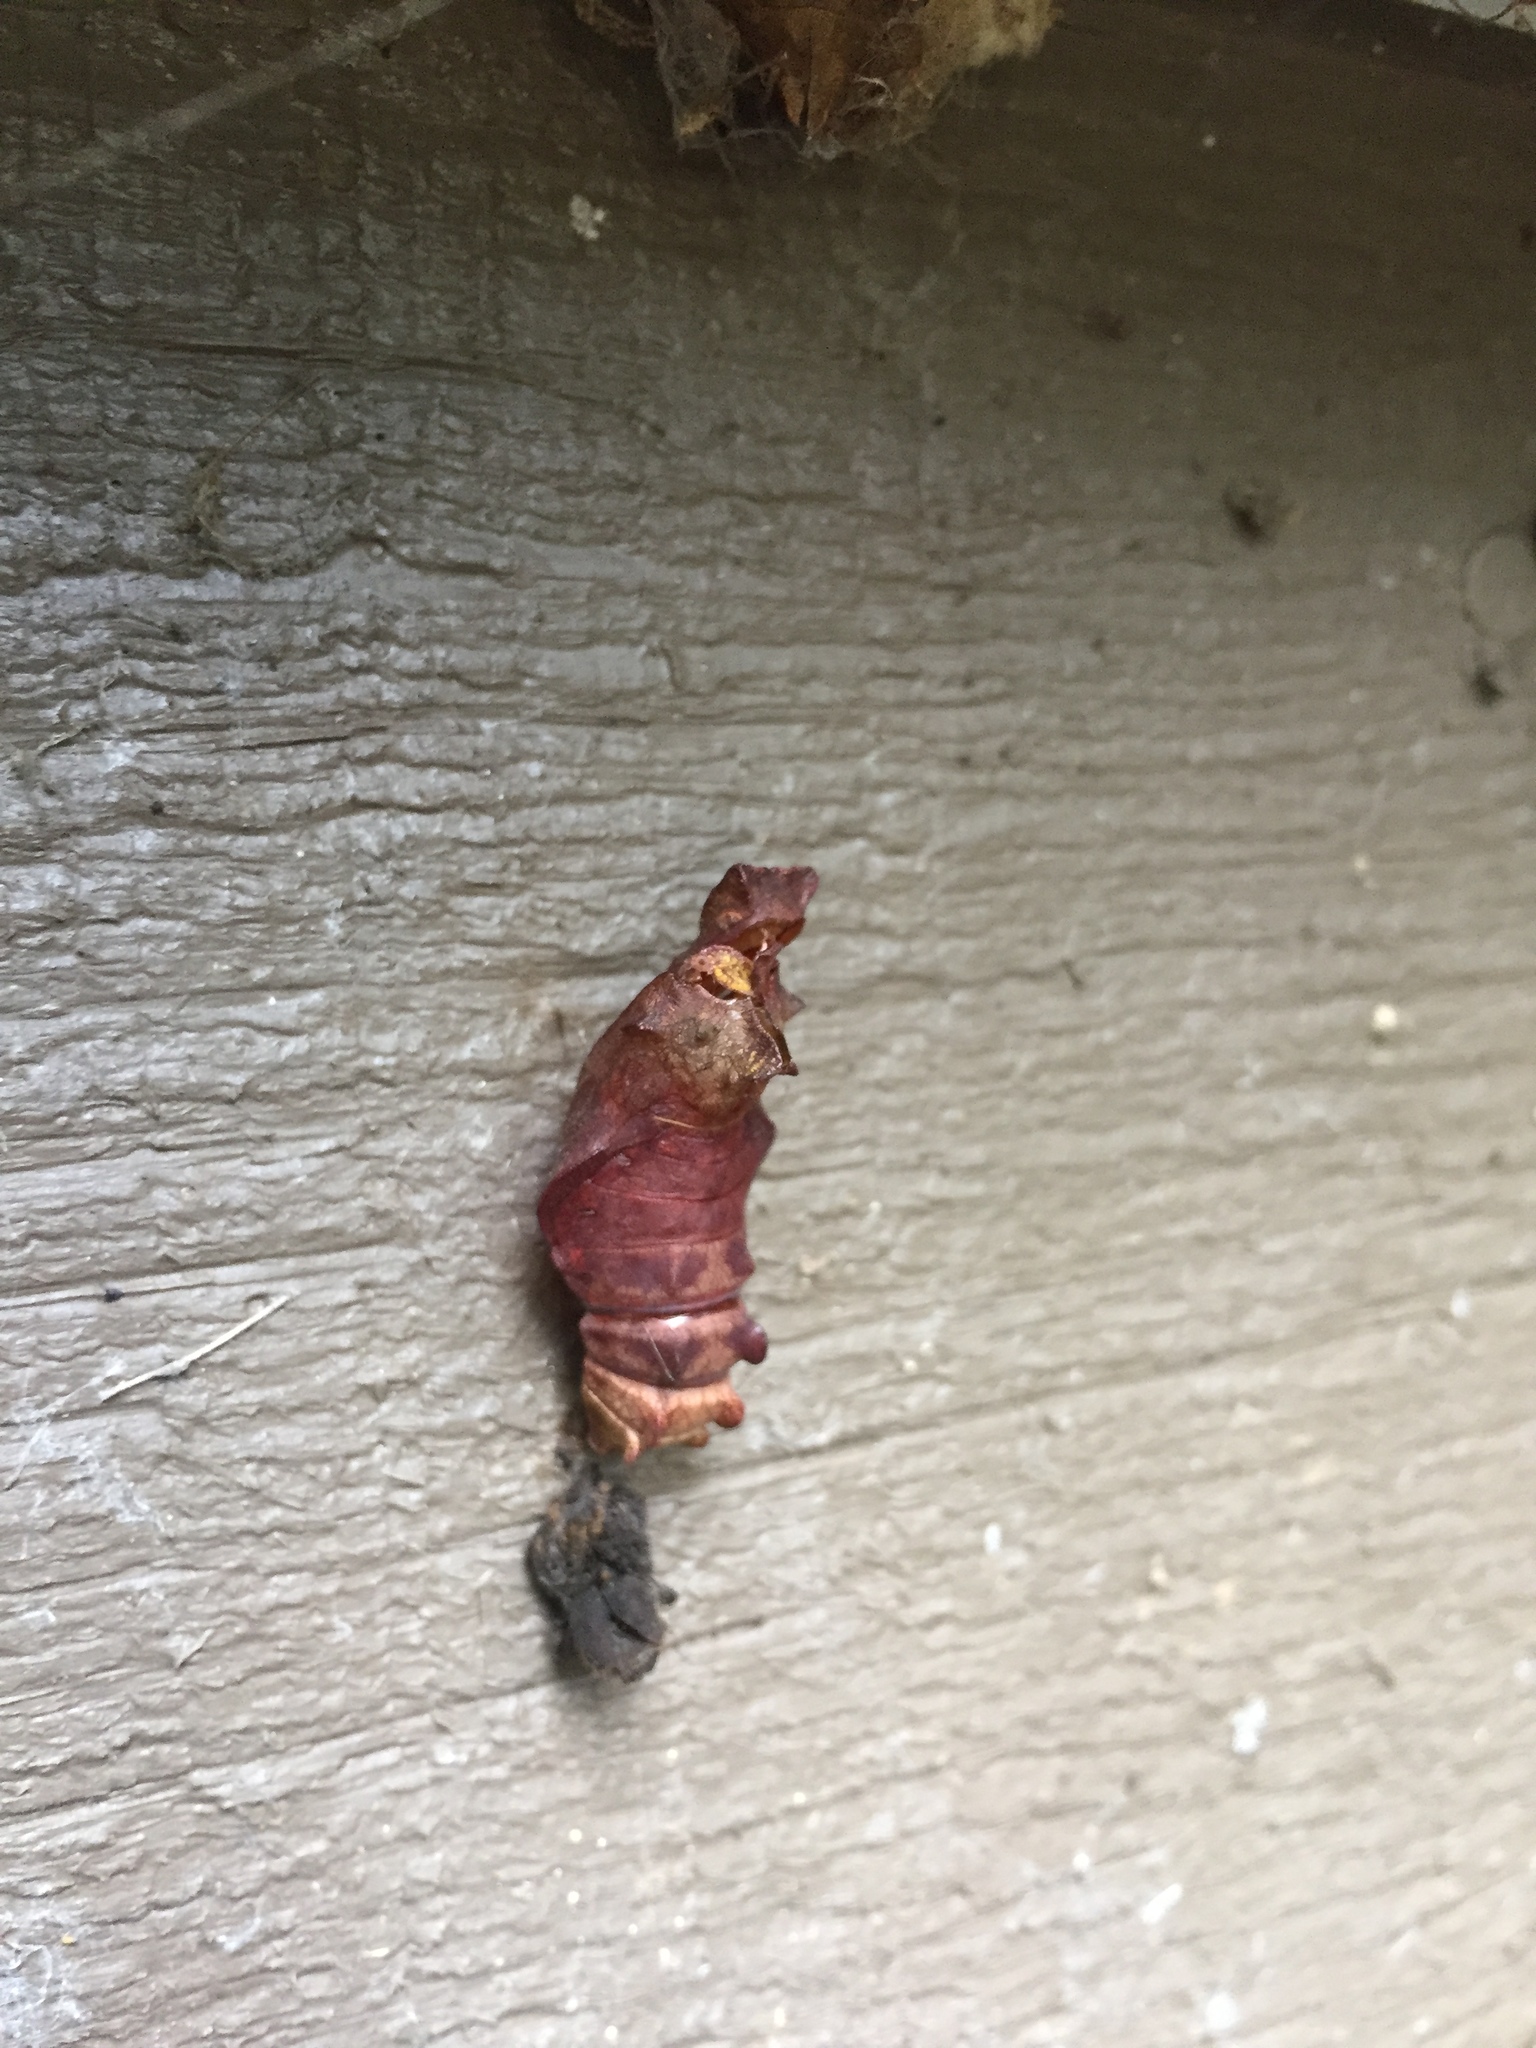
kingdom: Animalia
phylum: Arthropoda
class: Insecta
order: Lepidoptera
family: Papilionidae
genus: Battus
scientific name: Battus philenor
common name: Pipevine swallowtail
